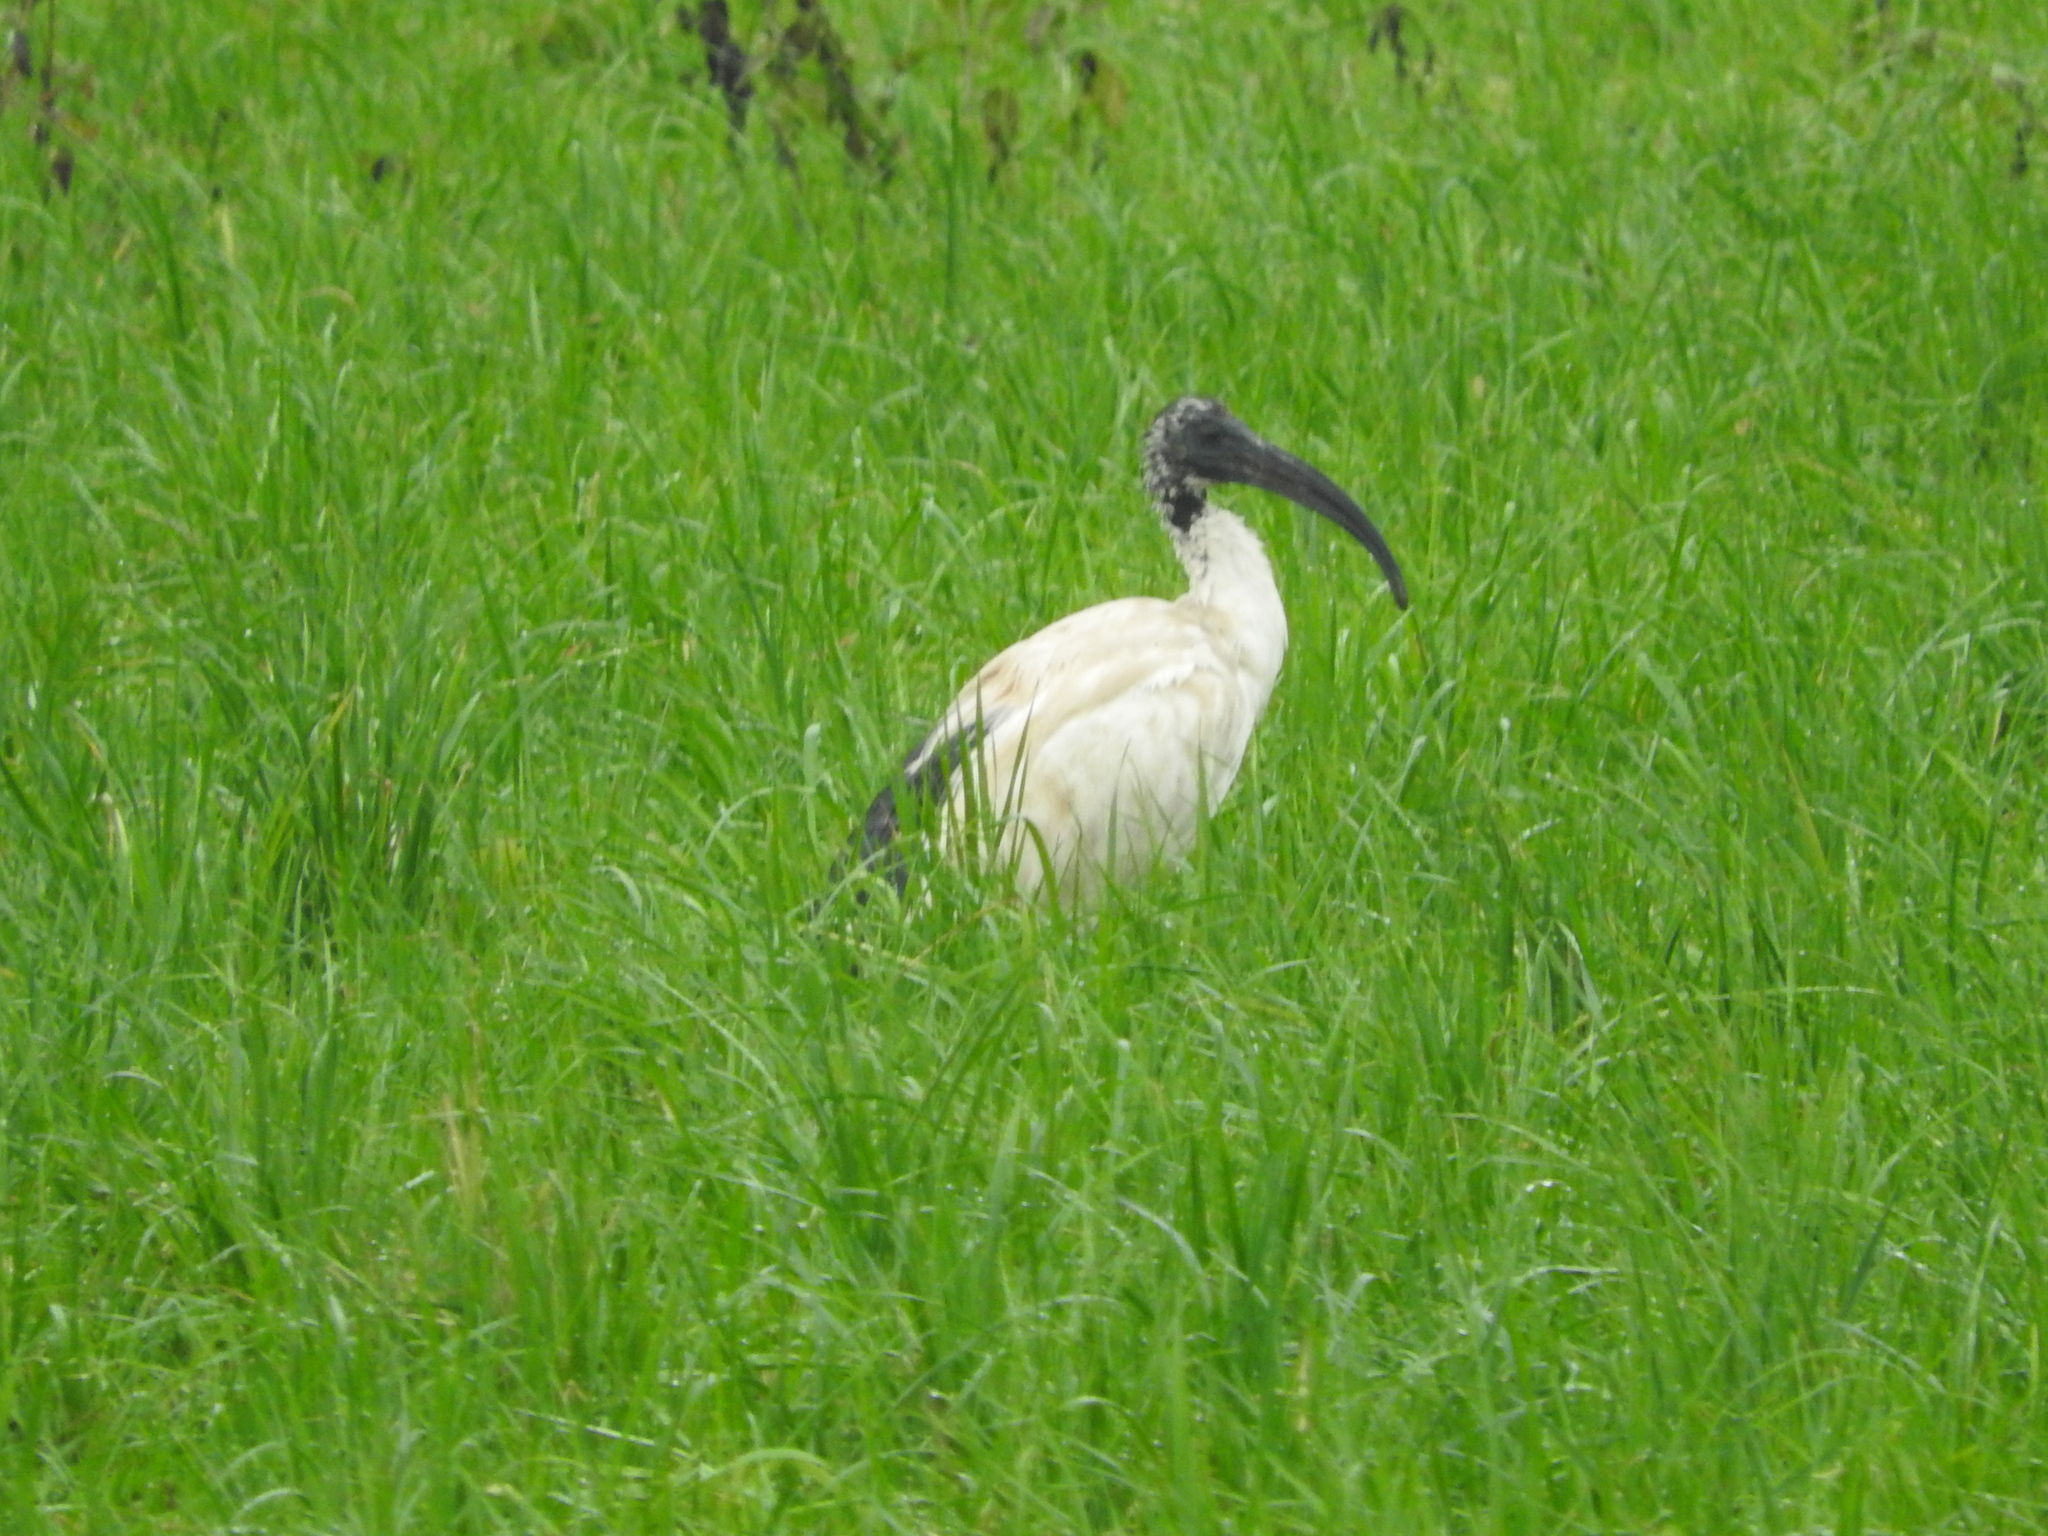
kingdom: Animalia
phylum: Chordata
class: Aves
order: Pelecaniformes
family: Threskiornithidae
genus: Threskiornis
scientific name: Threskiornis aethiopicus
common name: Sacred ibis
